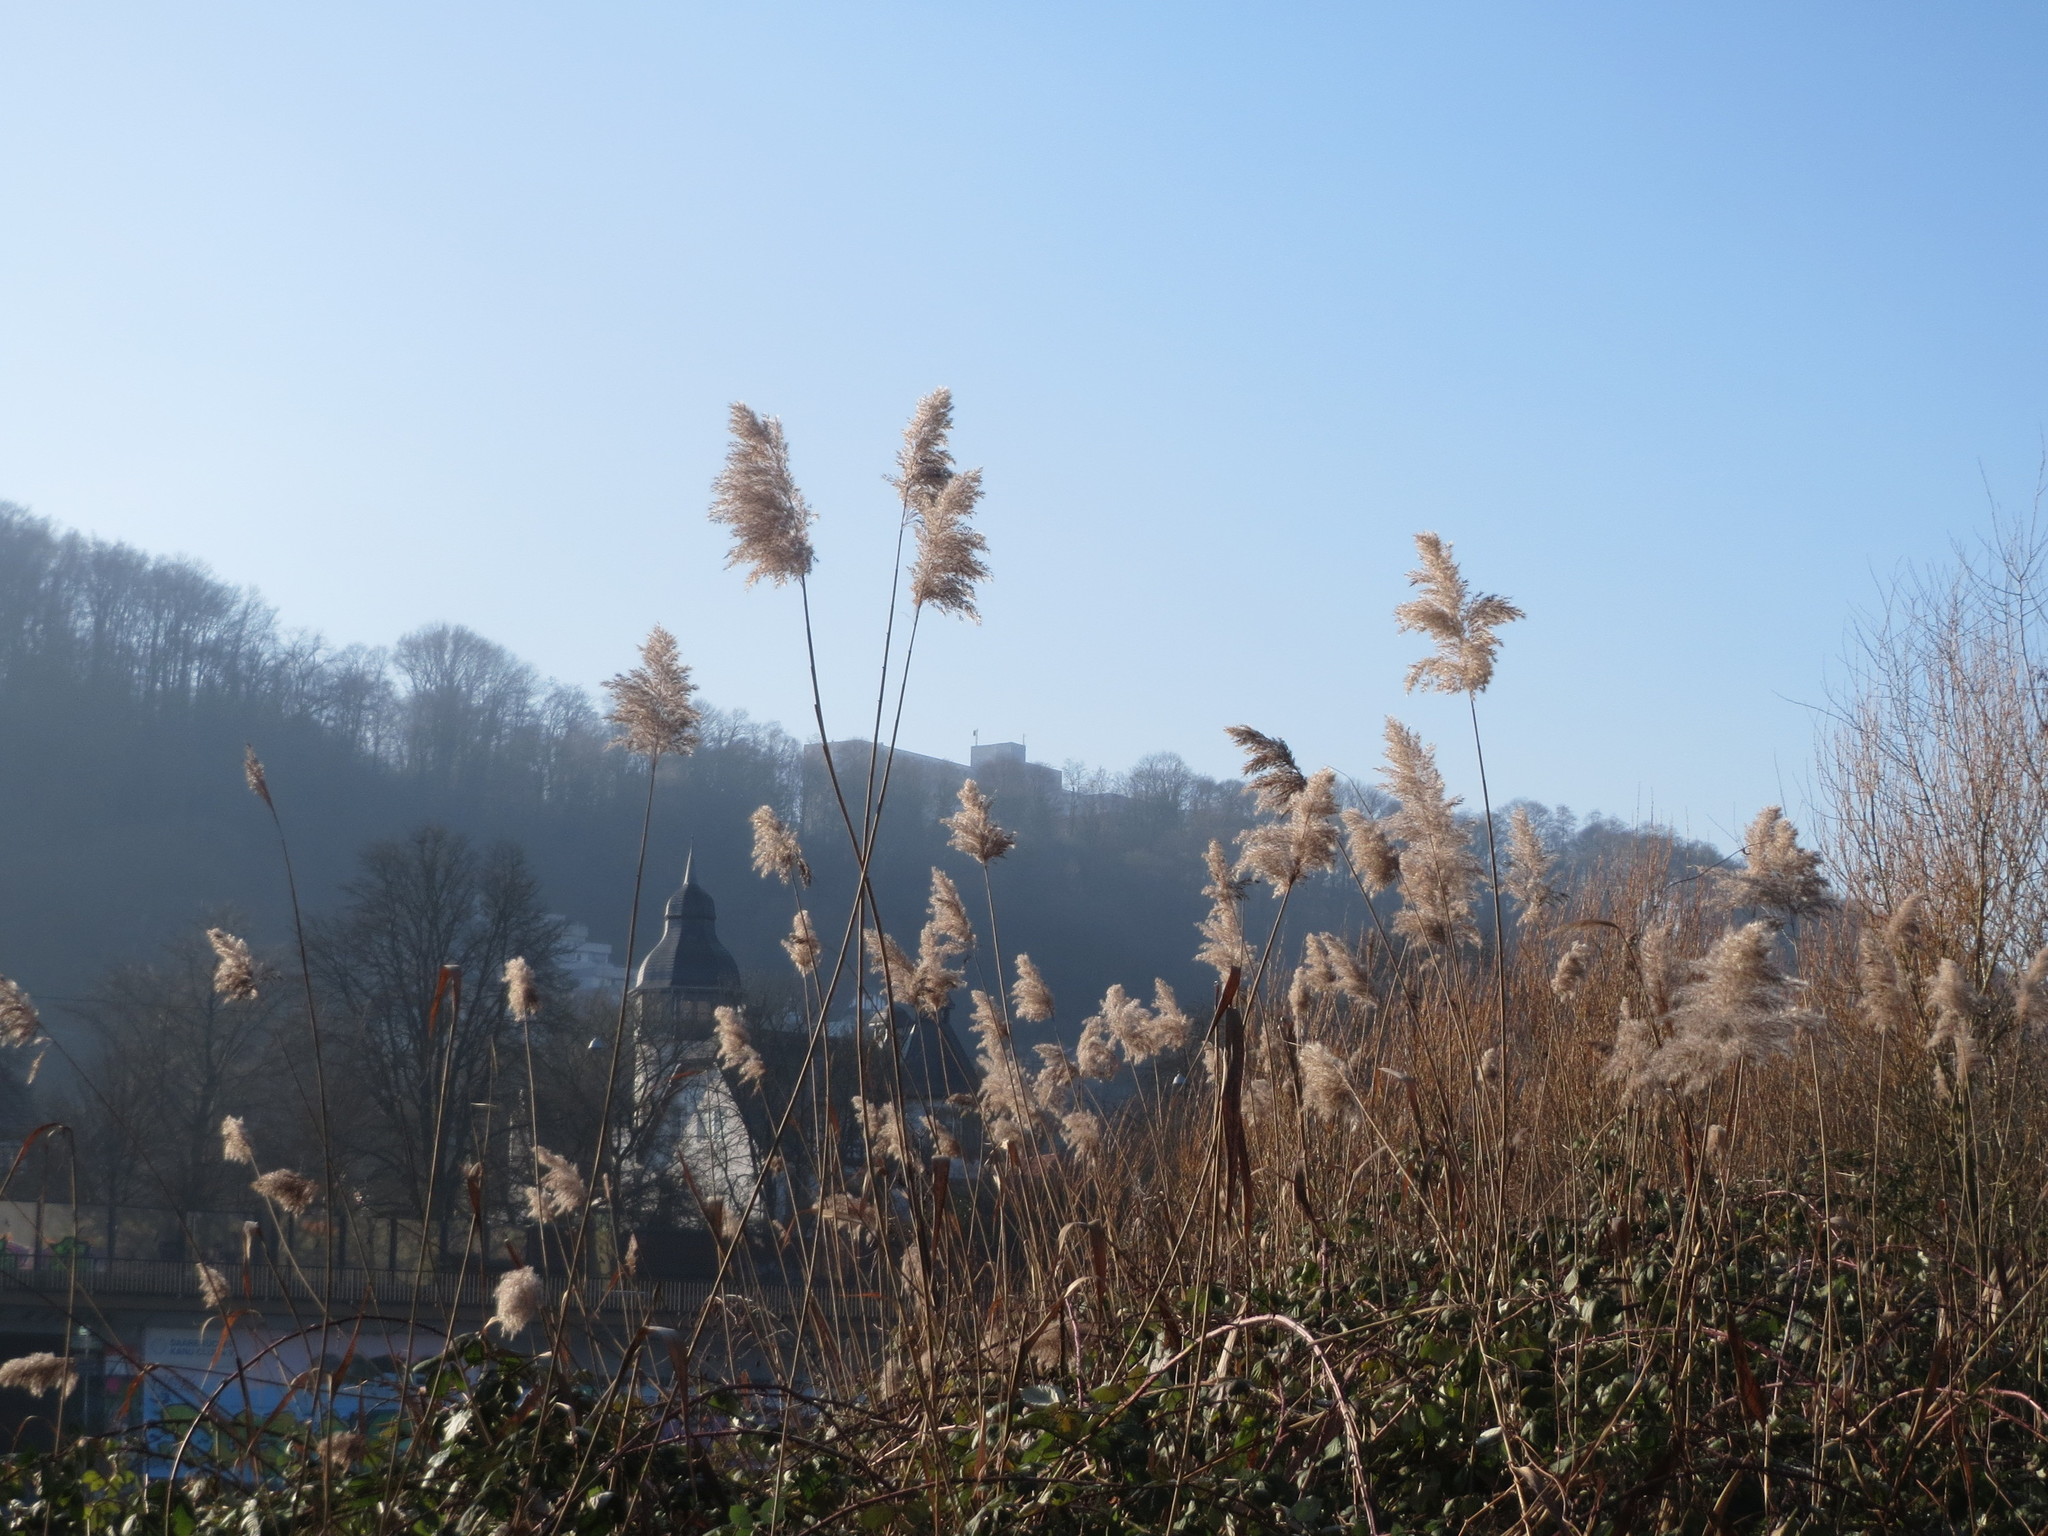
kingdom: Plantae
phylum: Tracheophyta
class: Liliopsida
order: Poales
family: Poaceae
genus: Phragmites
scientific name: Phragmites australis
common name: Common reed
